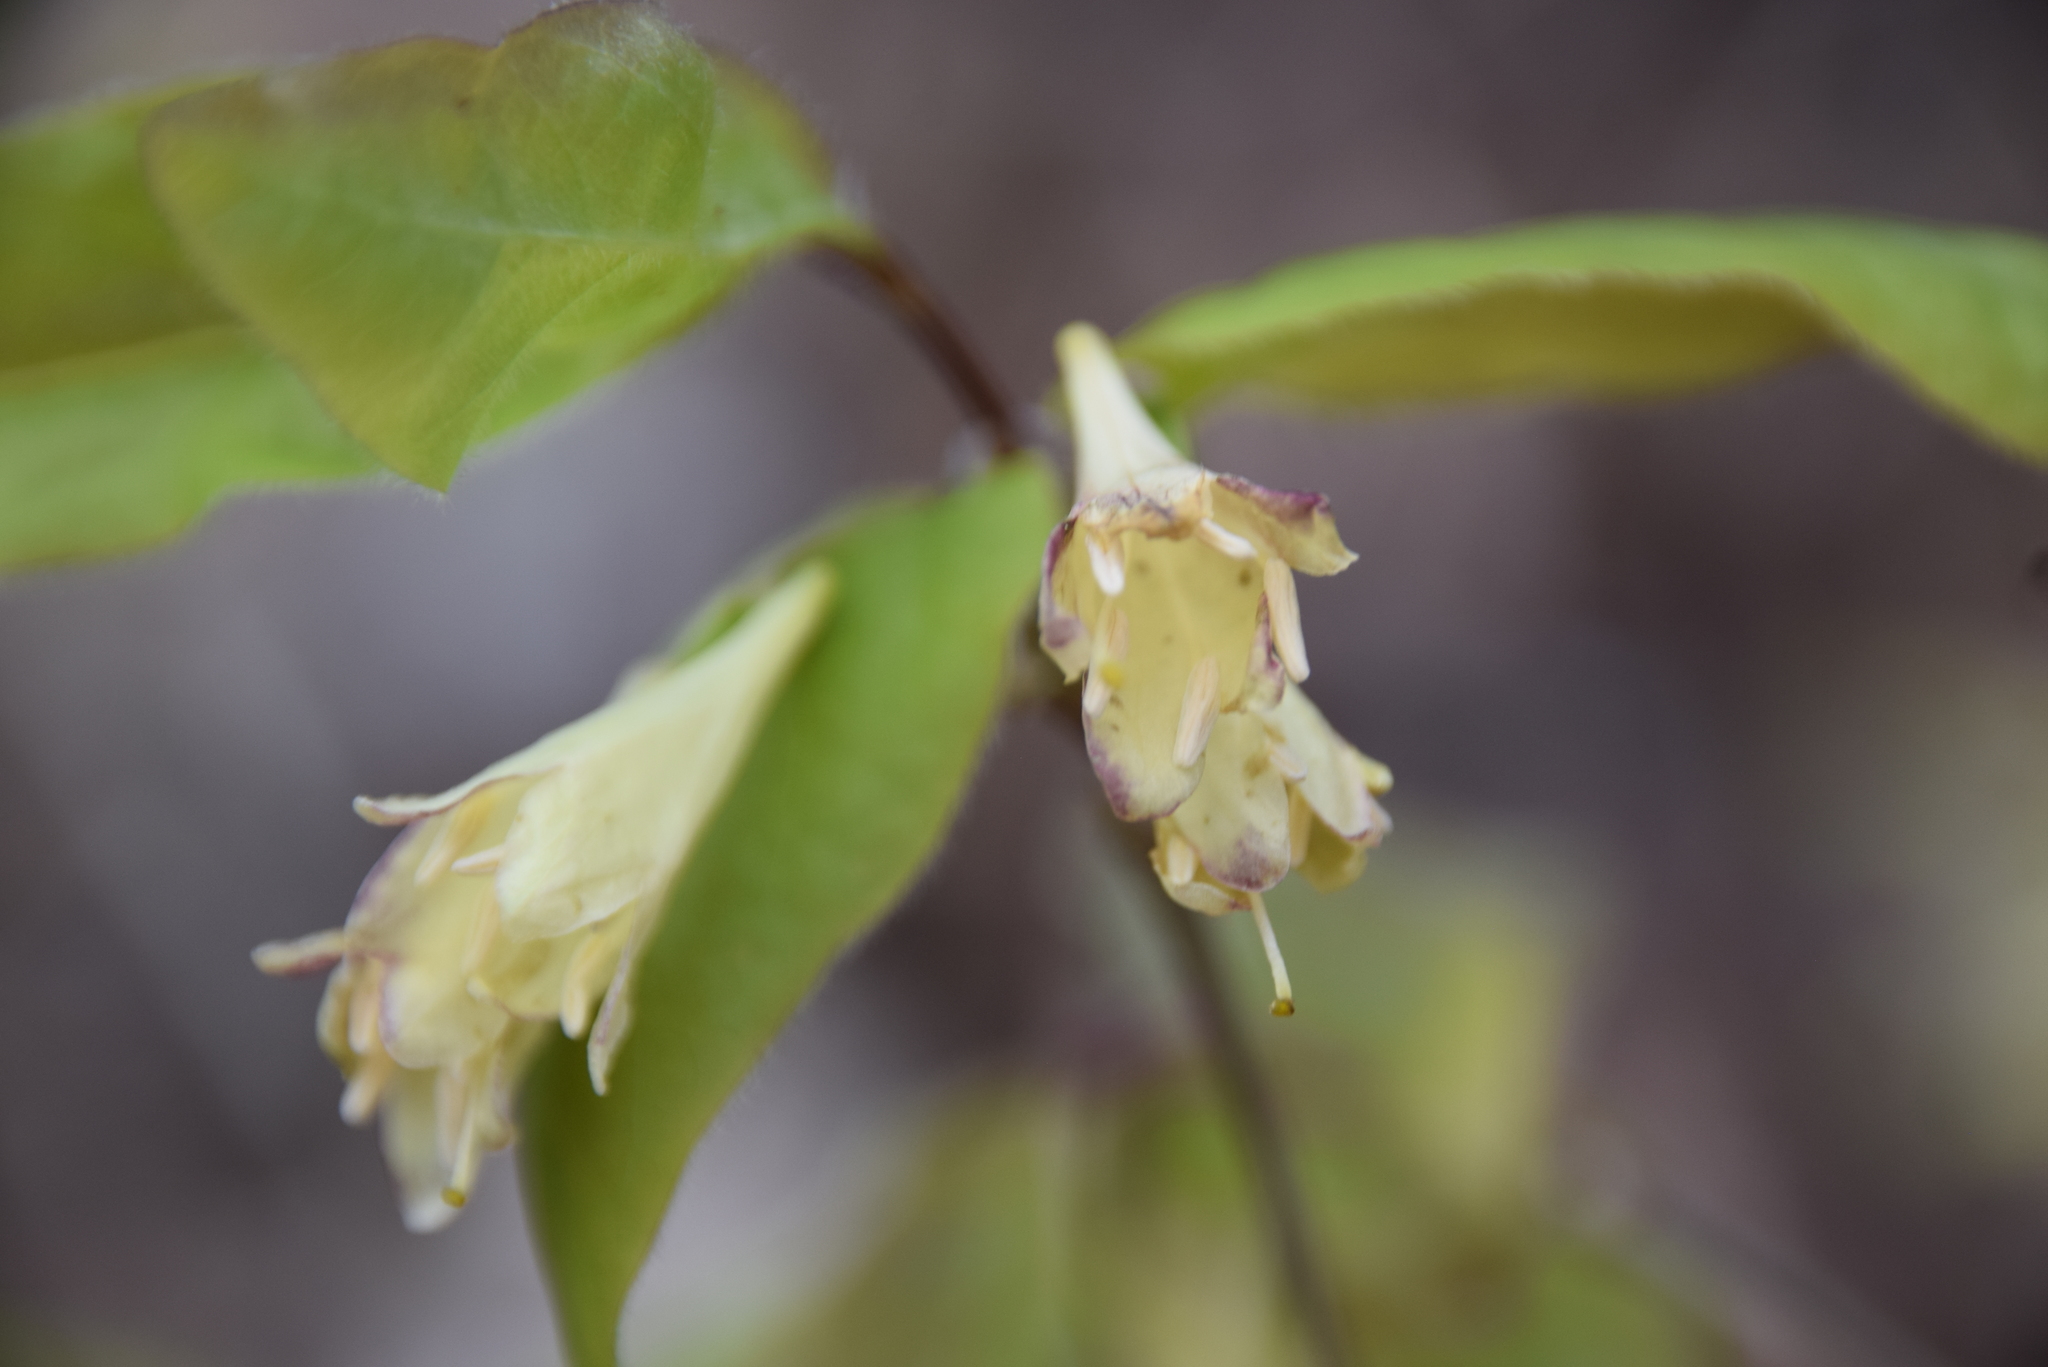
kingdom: Plantae
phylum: Tracheophyta
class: Magnoliopsida
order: Dipsacales
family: Caprifoliaceae
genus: Lonicera
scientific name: Lonicera canadensis
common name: American fly-honeysuckle
